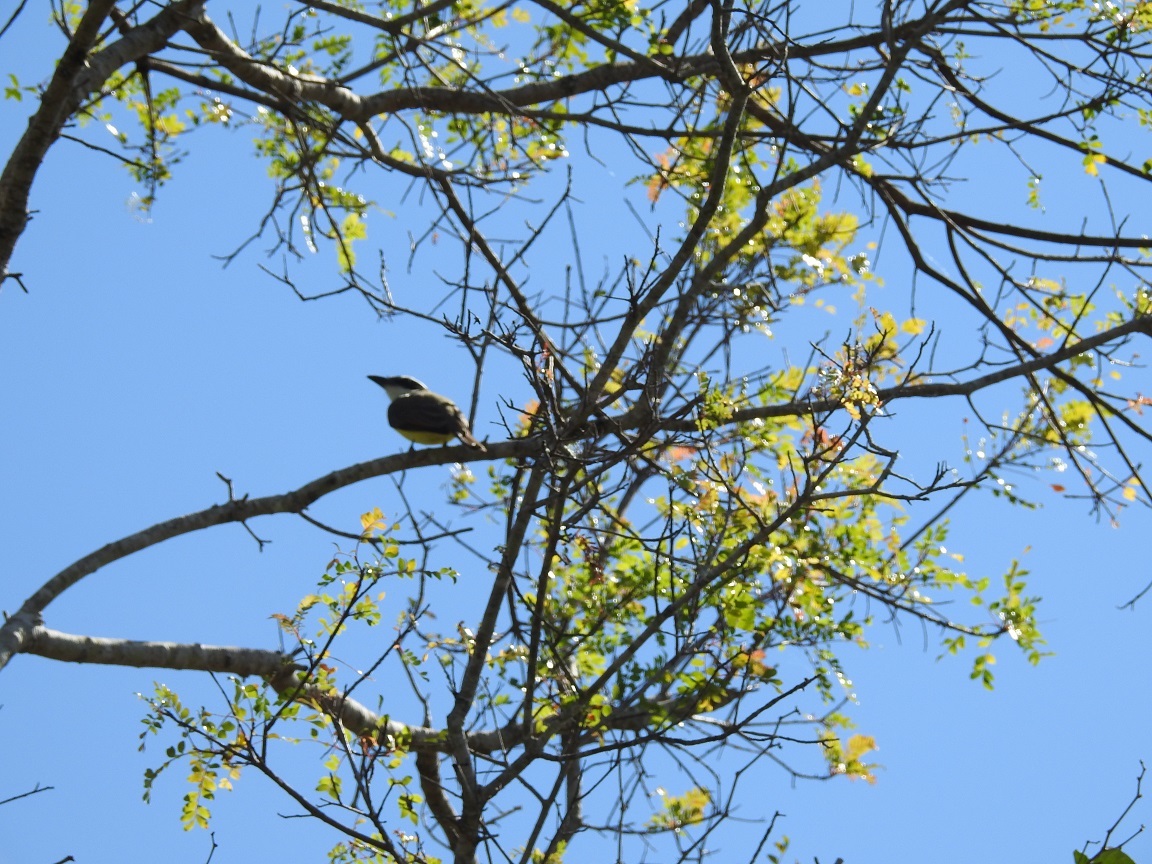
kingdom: Animalia
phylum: Chordata
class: Aves
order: Passeriformes
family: Tyrannidae
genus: Pitangus
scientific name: Pitangus sulphuratus
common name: Great kiskadee
